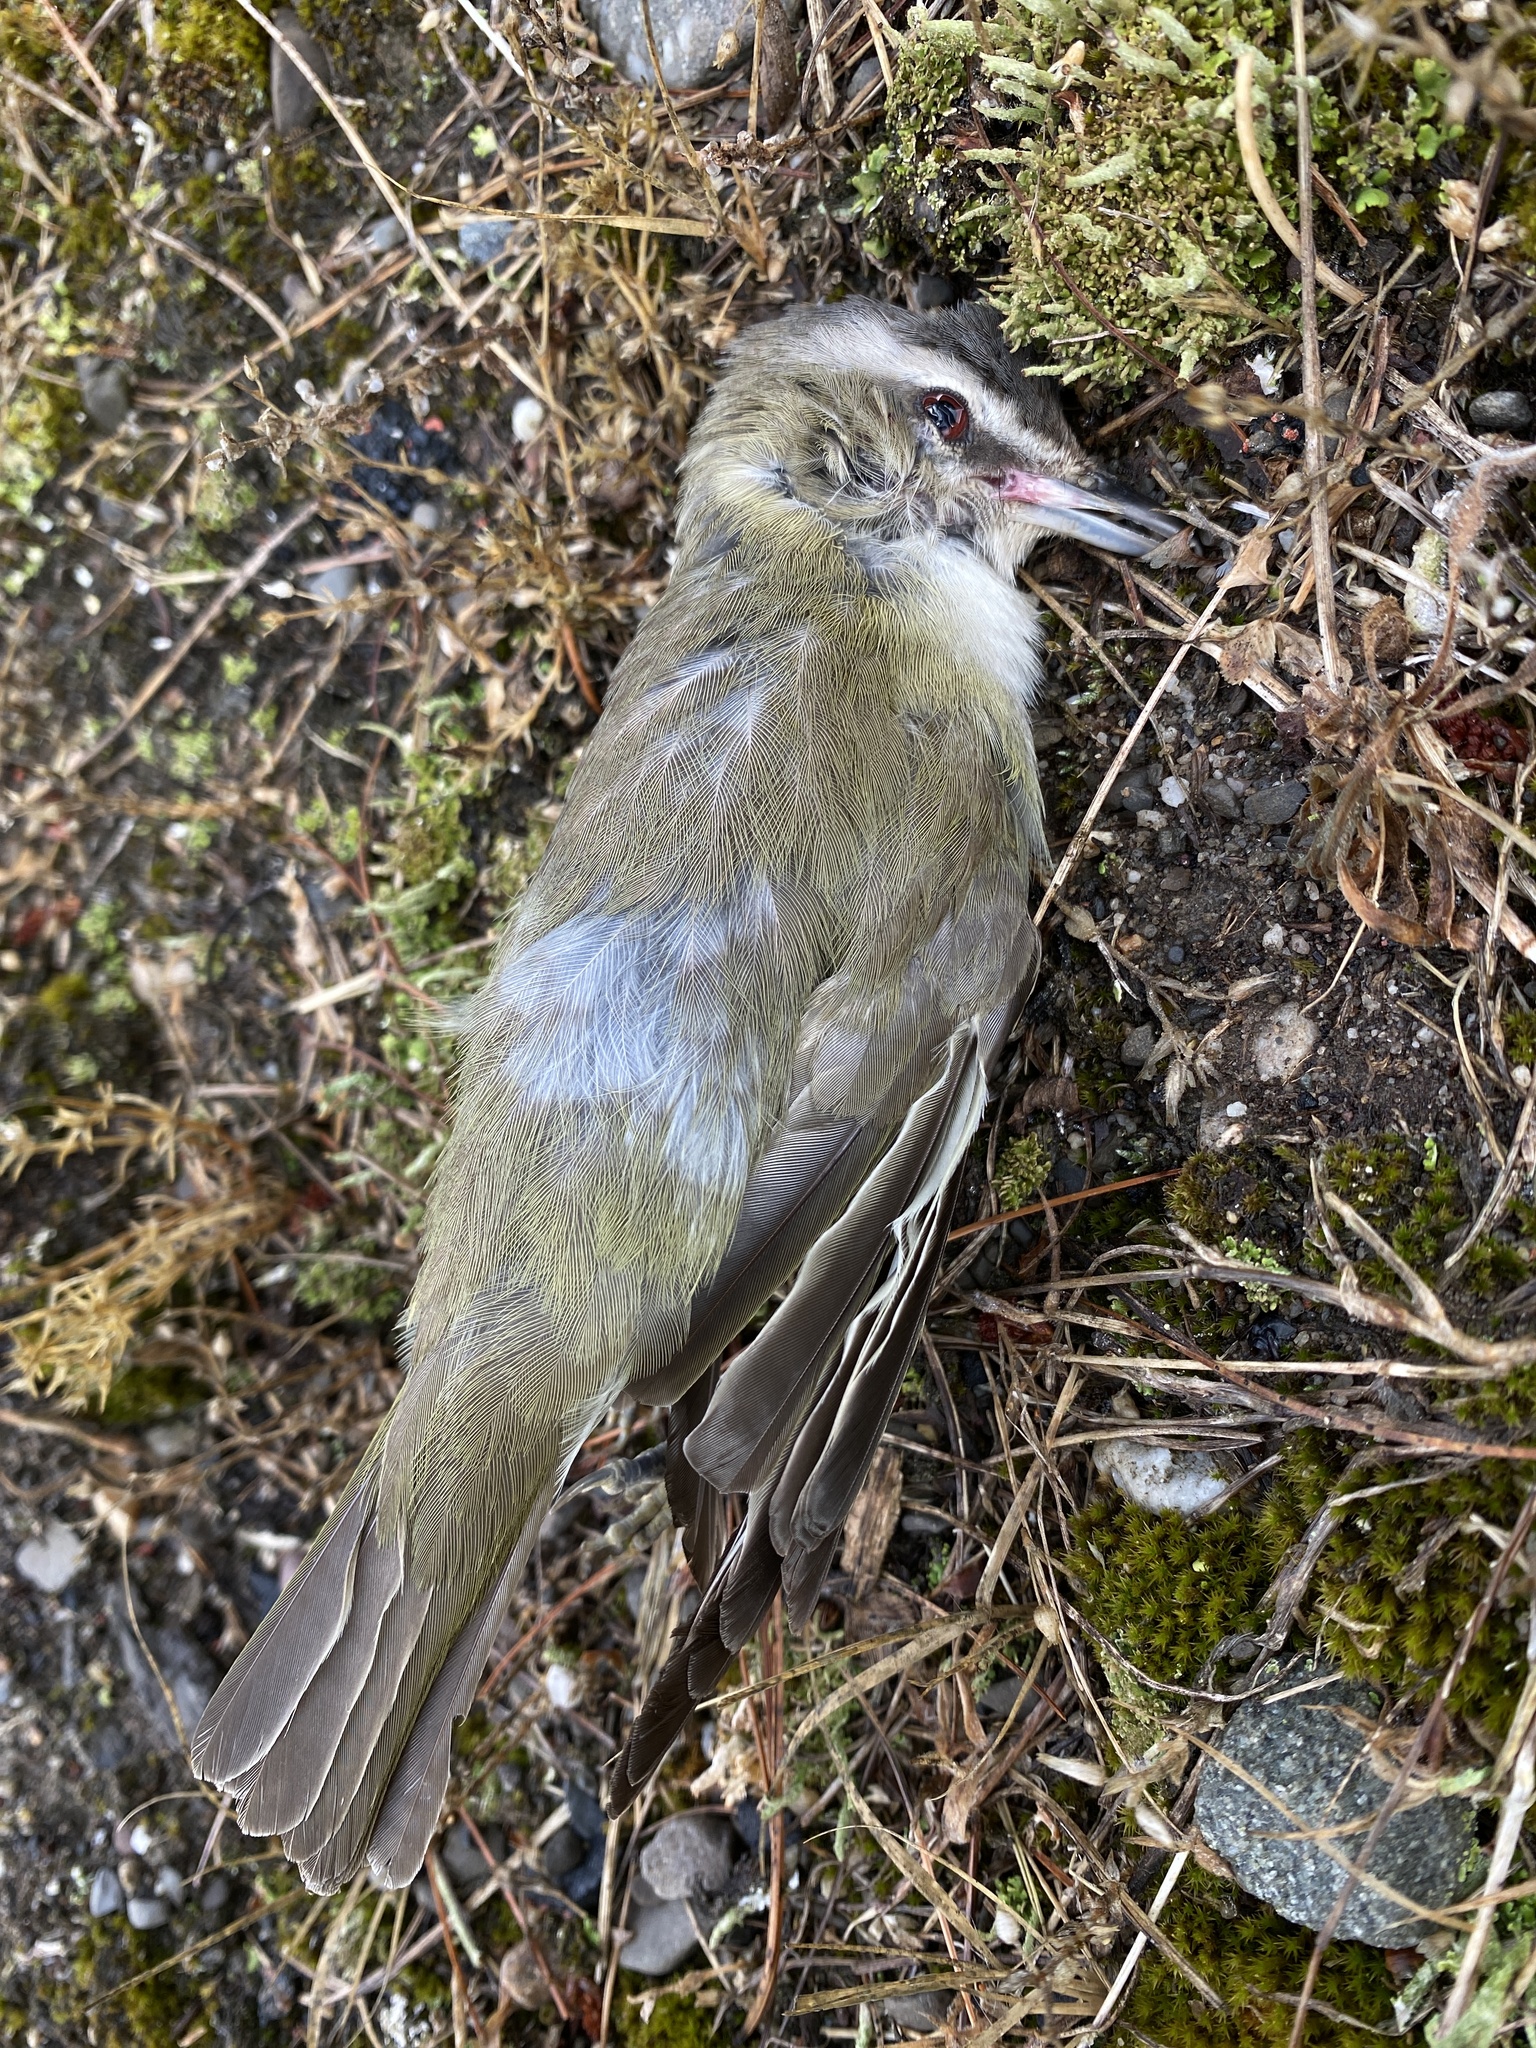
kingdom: Animalia
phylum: Chordata
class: Aves
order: Passeriformes
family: Vireonidae
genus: Vireo
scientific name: Vireo olivaceus
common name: Red-eyed vireo
